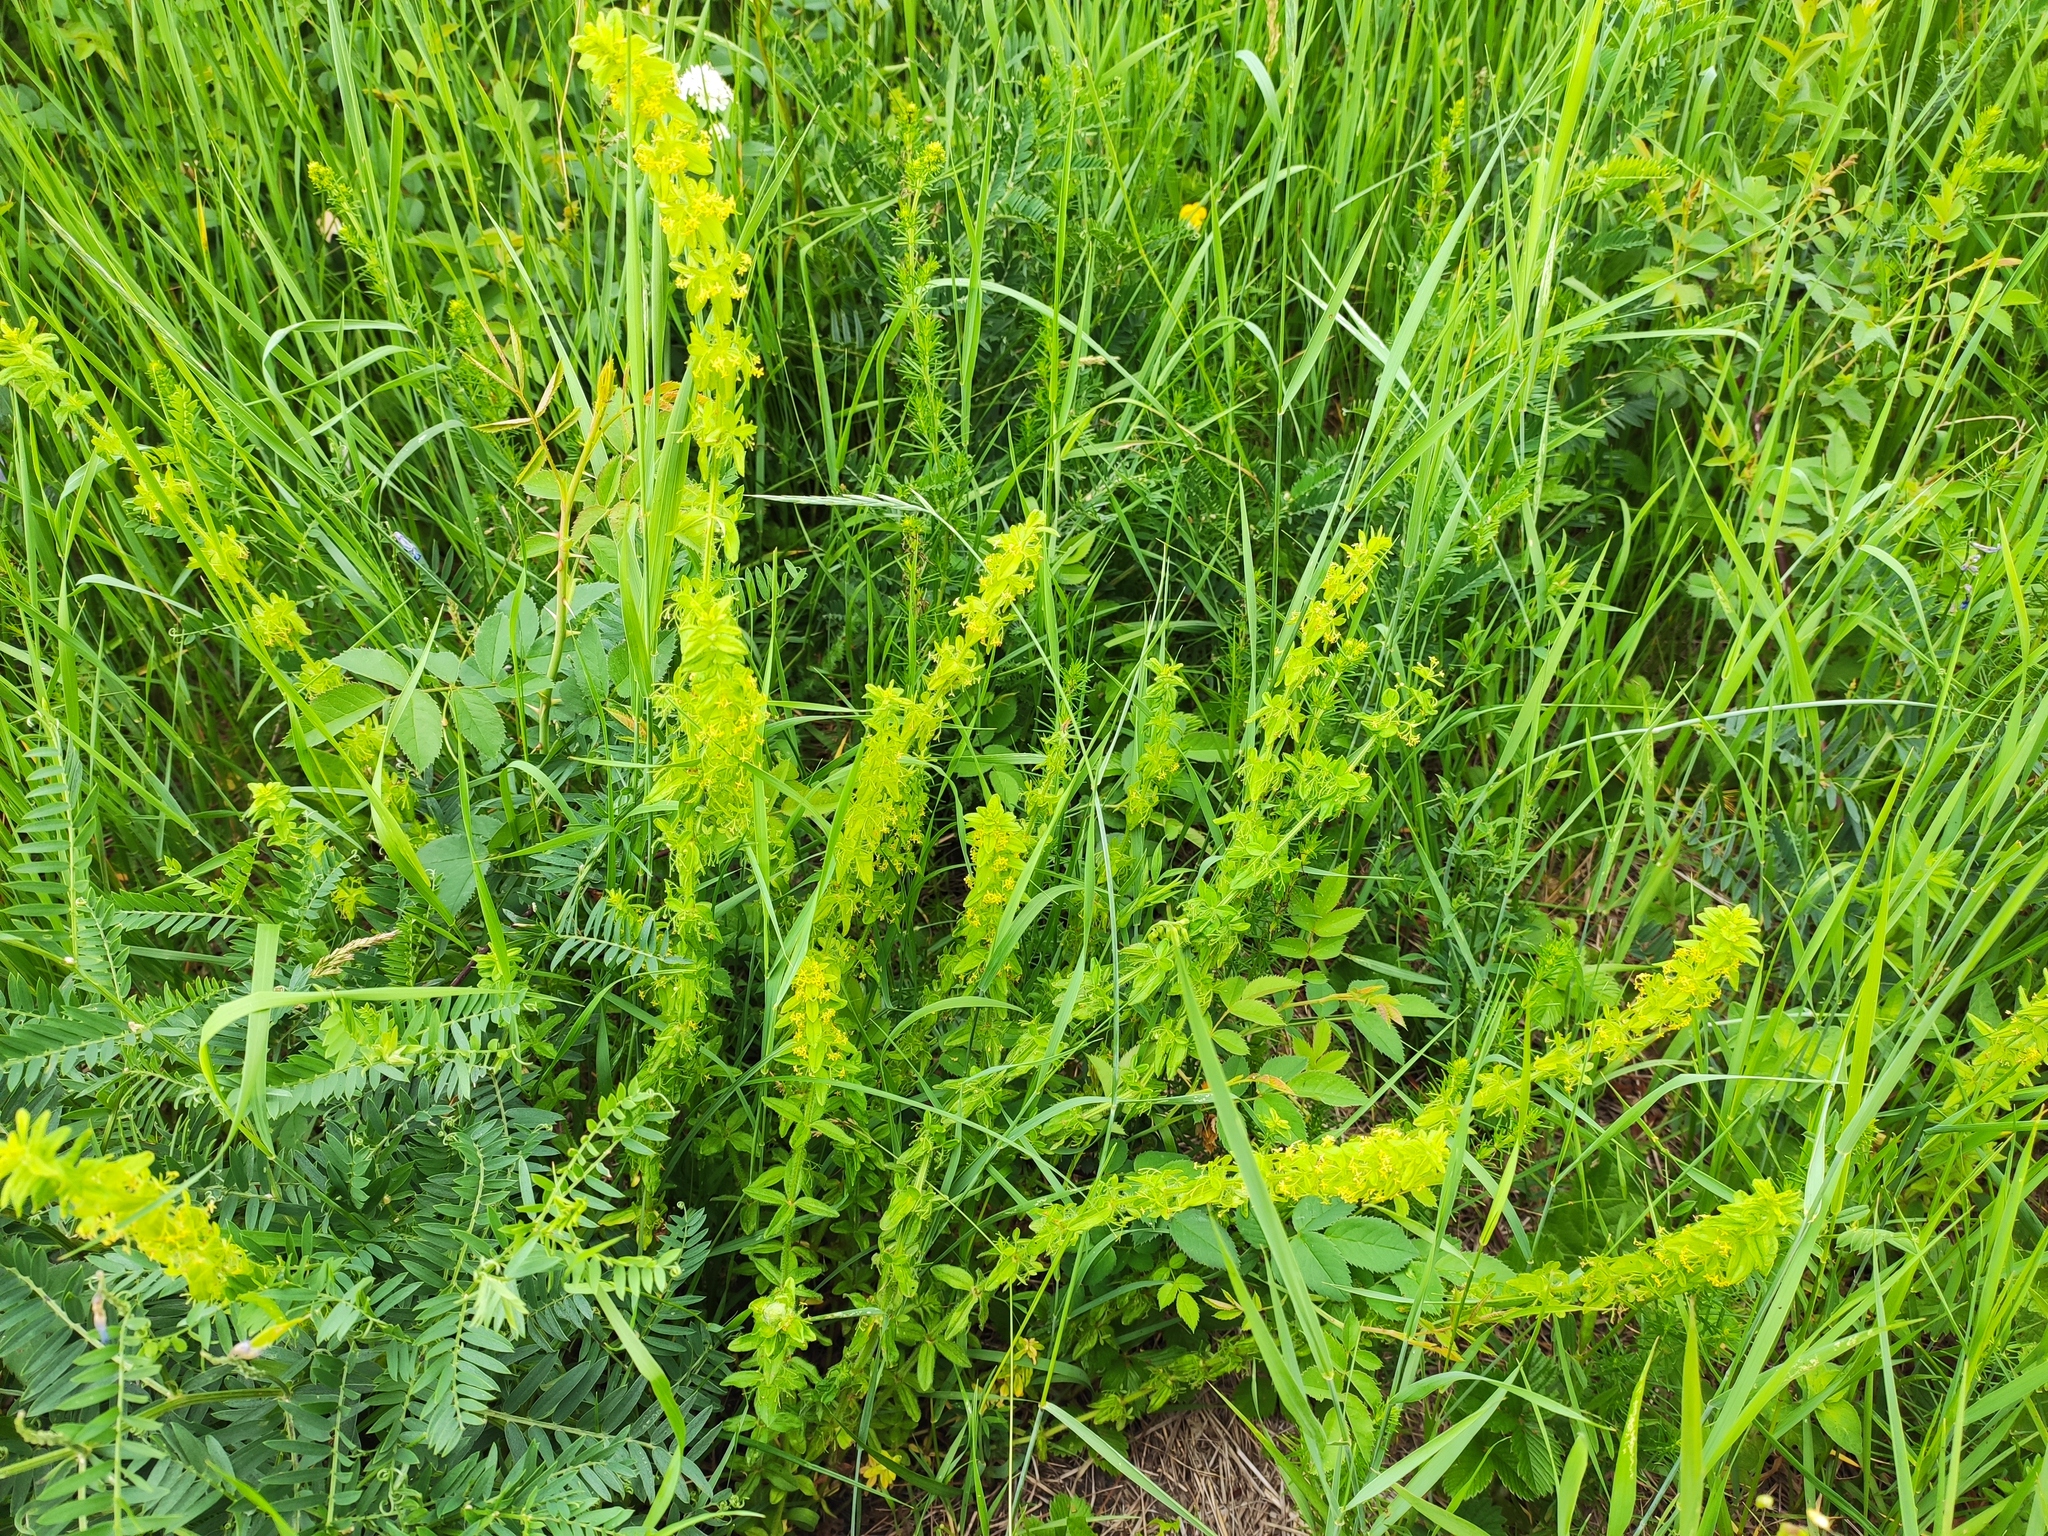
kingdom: Plantae
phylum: Tracheophyta
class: Magnoliopsida
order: Gentianales
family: Rubiaceae
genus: Cruciata
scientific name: Cruciata laevipes
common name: Crosswort
